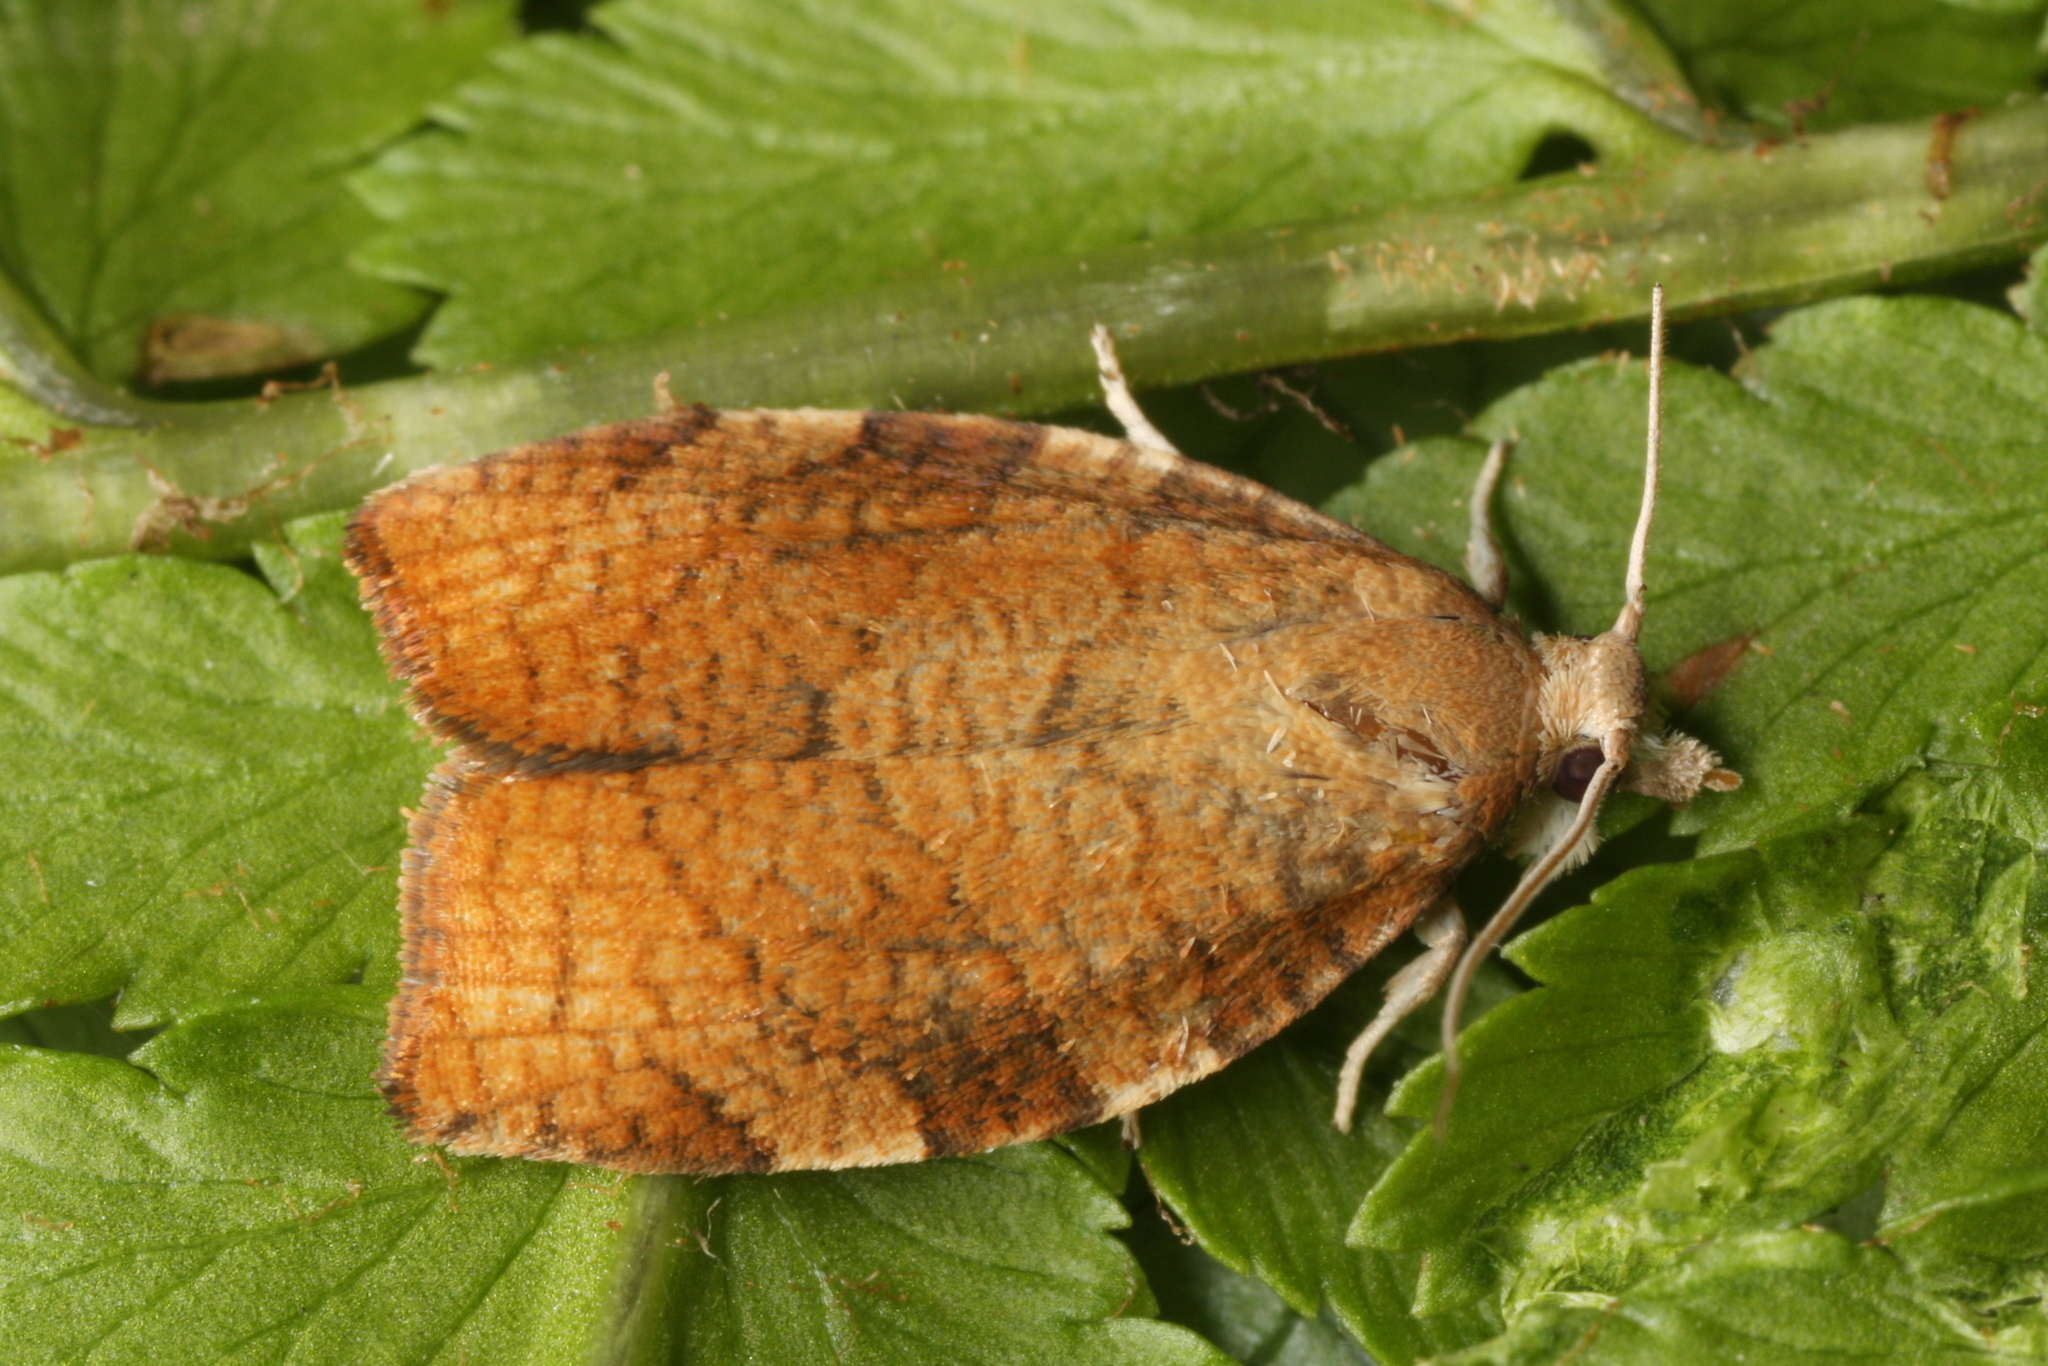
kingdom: Animalia
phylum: Arthropoda
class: Insecta
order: Lepidoptera
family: Tortricidae
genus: Pandemis
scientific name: Pandemis cinnamomeana
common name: White-faced twist
